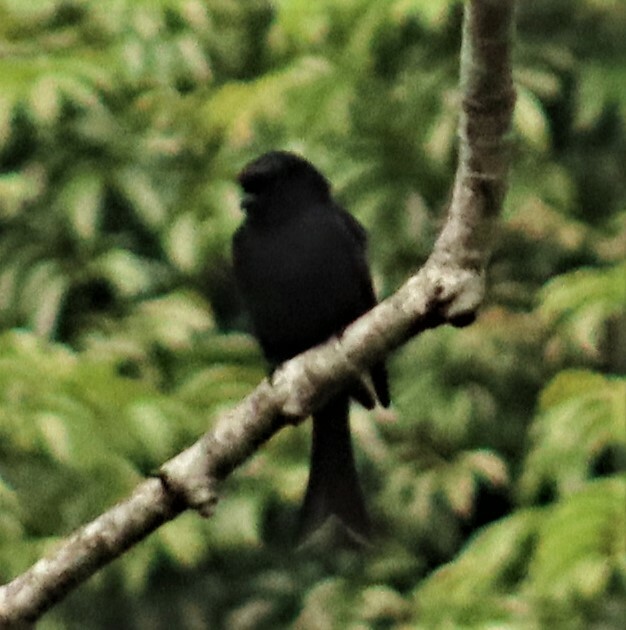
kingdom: Animalia
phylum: Chordata
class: Aves
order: Passeriformes
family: Dicruridae
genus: Dicrurus
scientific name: Dicrurus adsimilis
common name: Fork-tailed drongo
